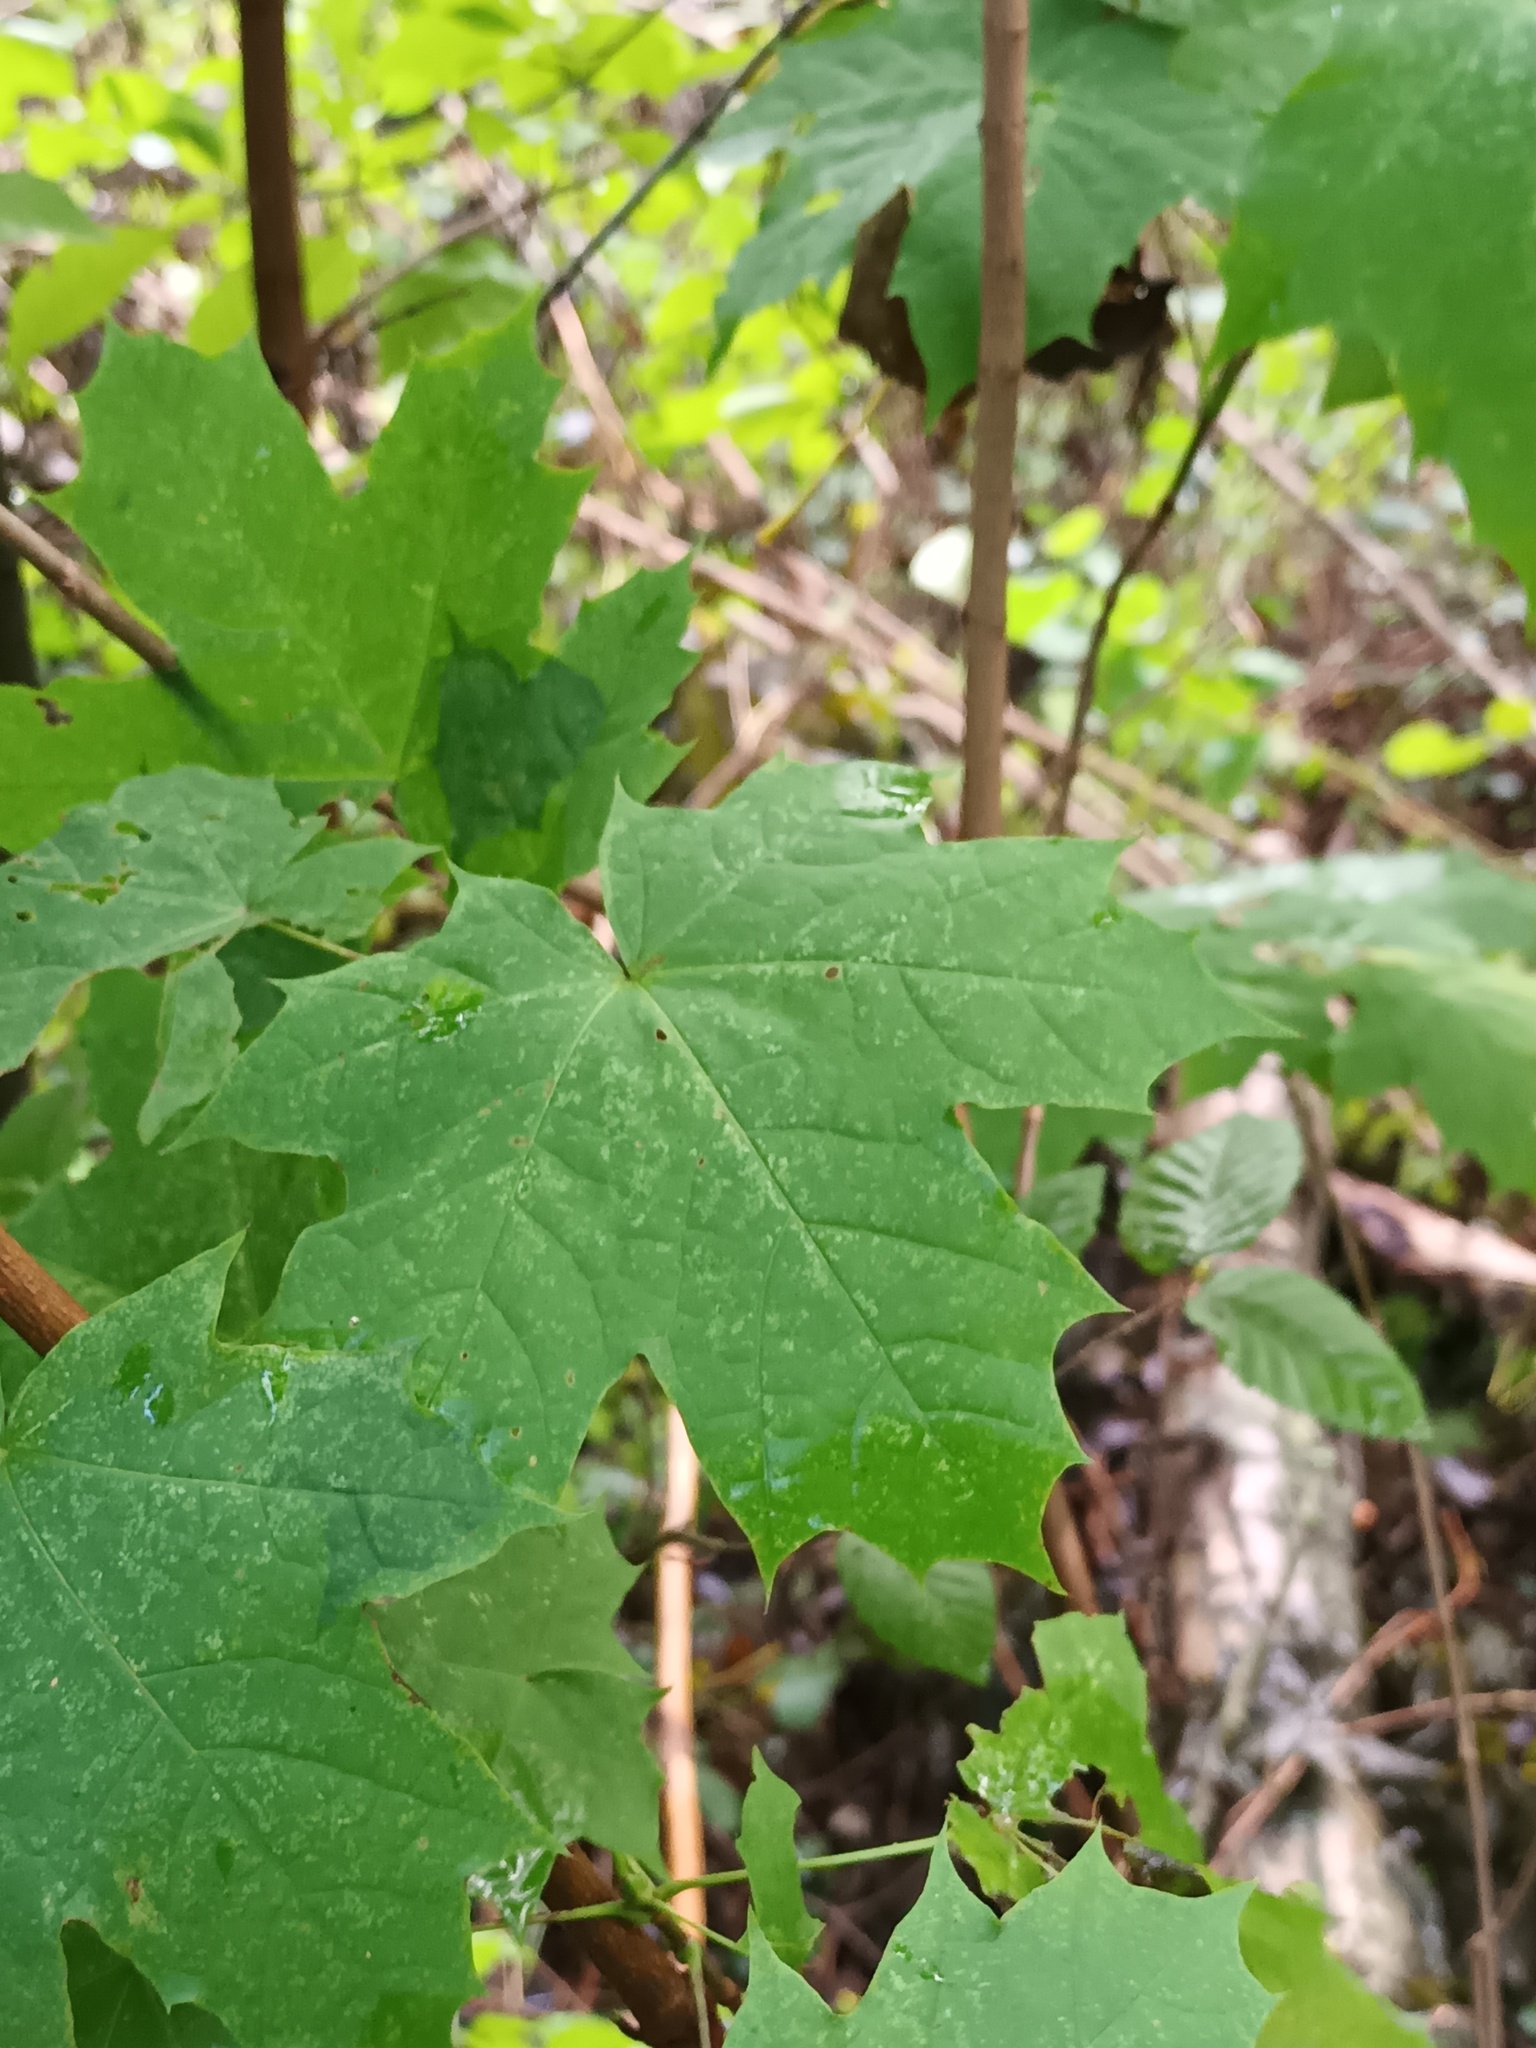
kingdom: Plantae
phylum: Tracheophyta
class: Magnoliopsida
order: Sapindales
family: Sapindaceae
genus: Acer
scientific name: Acer platanoides
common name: Norway maple
